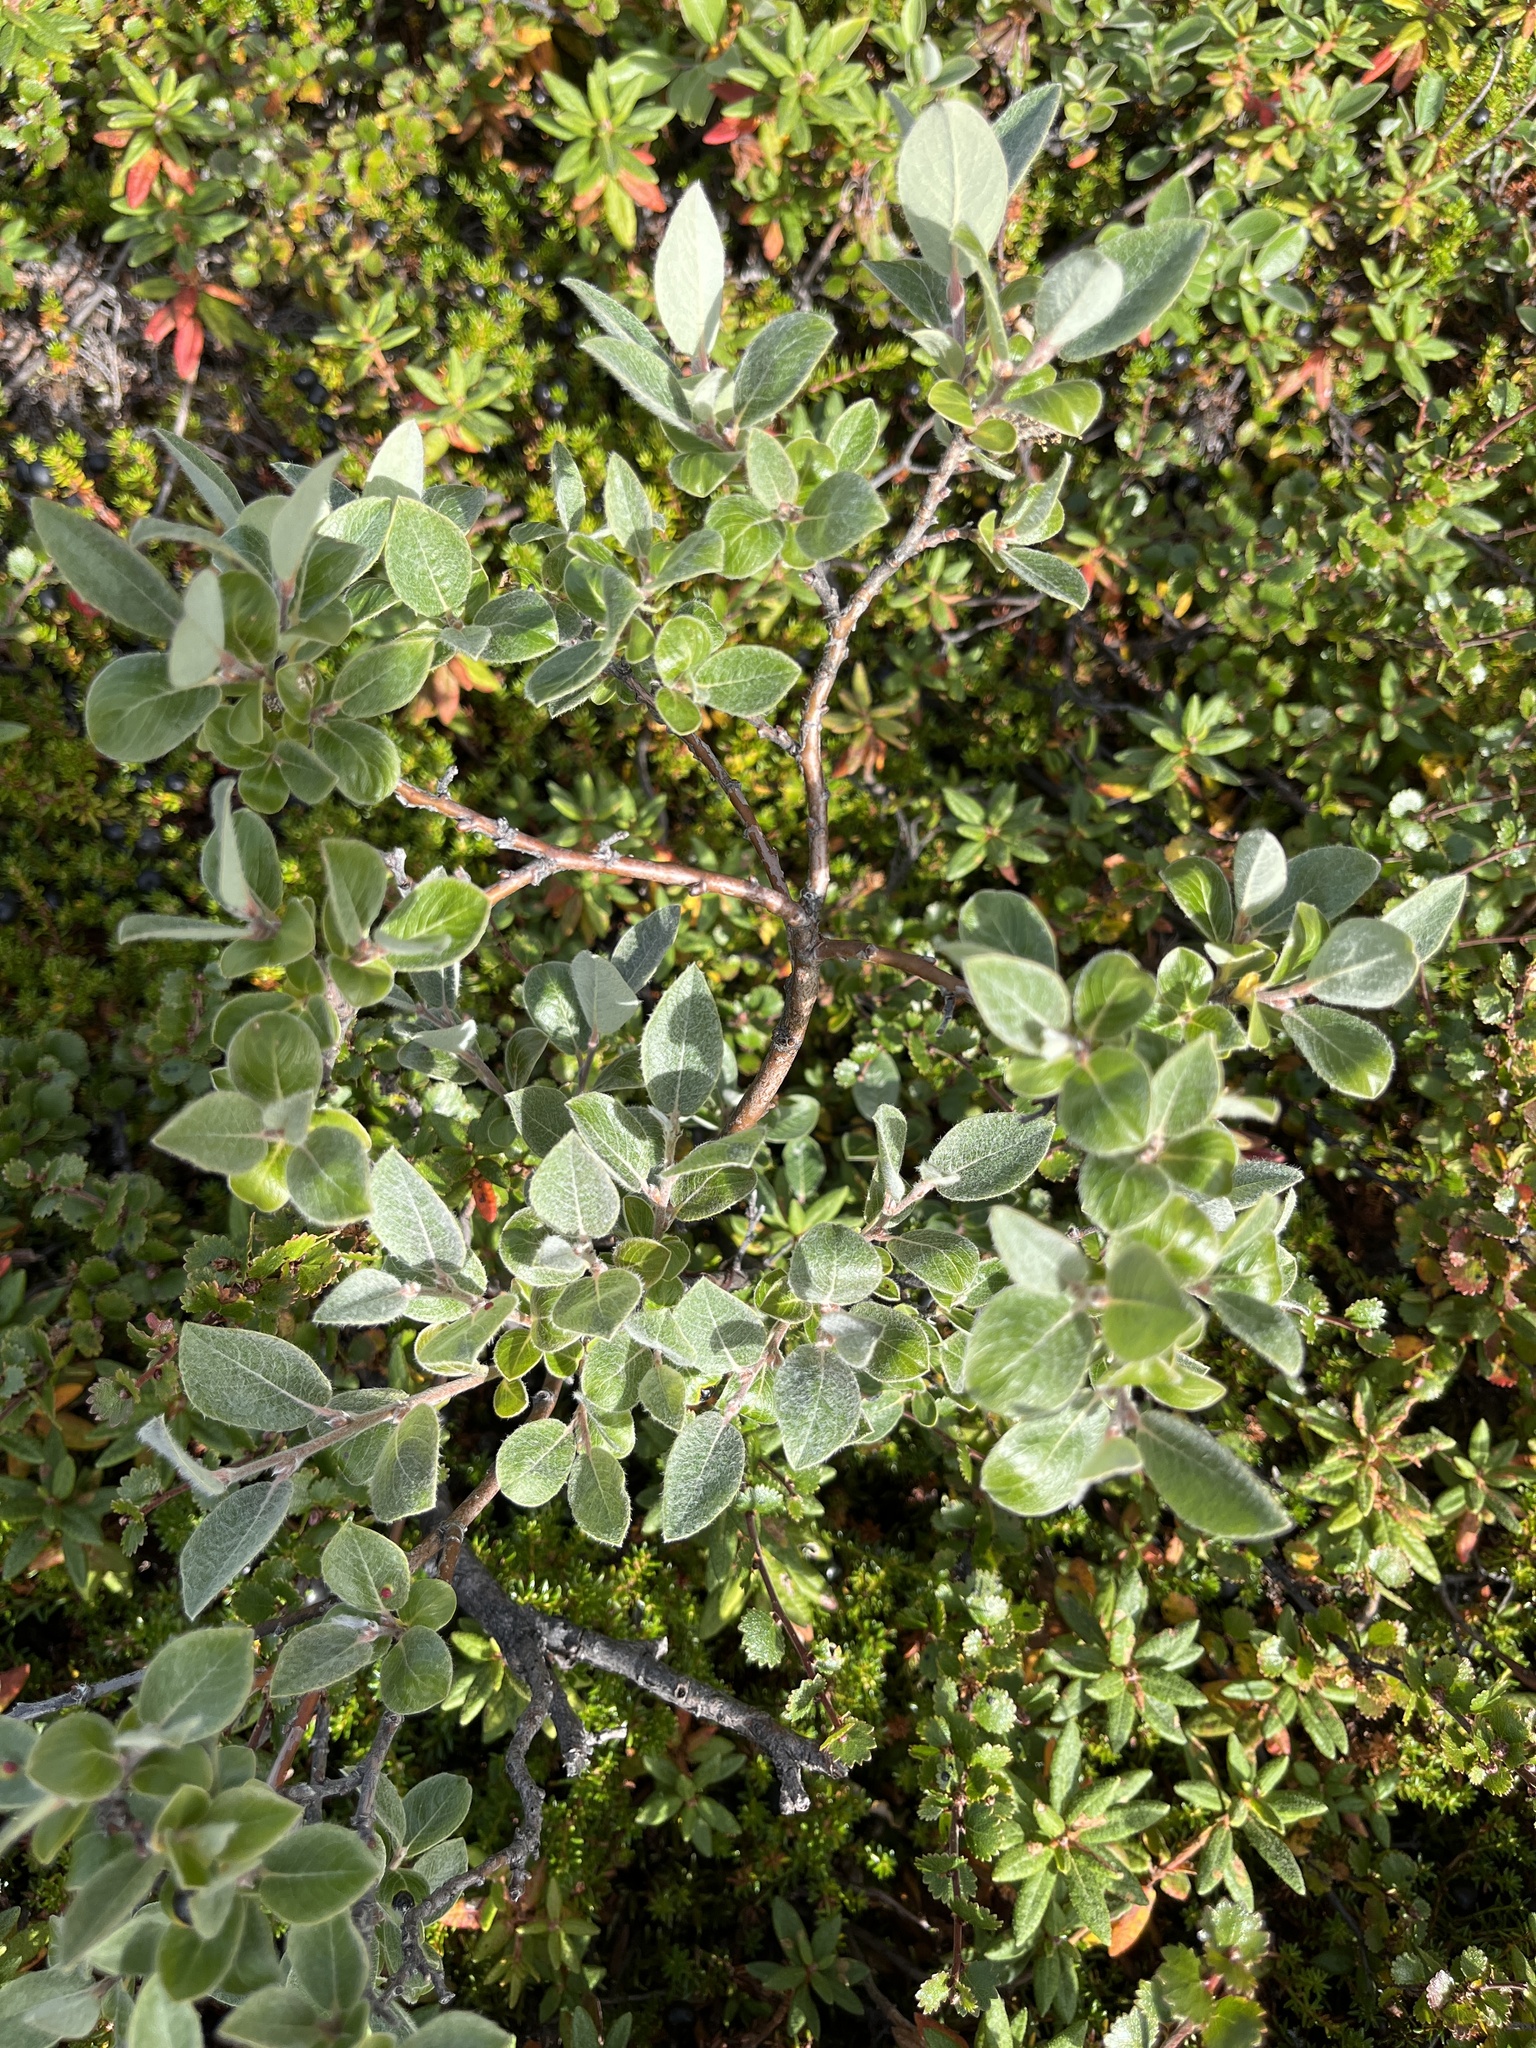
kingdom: Plantae
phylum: Tracheophyta
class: Magnoliopsida
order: Malpighiales
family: Salicaceae
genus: Salix
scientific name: Salix glauca
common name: Glaucous willow
